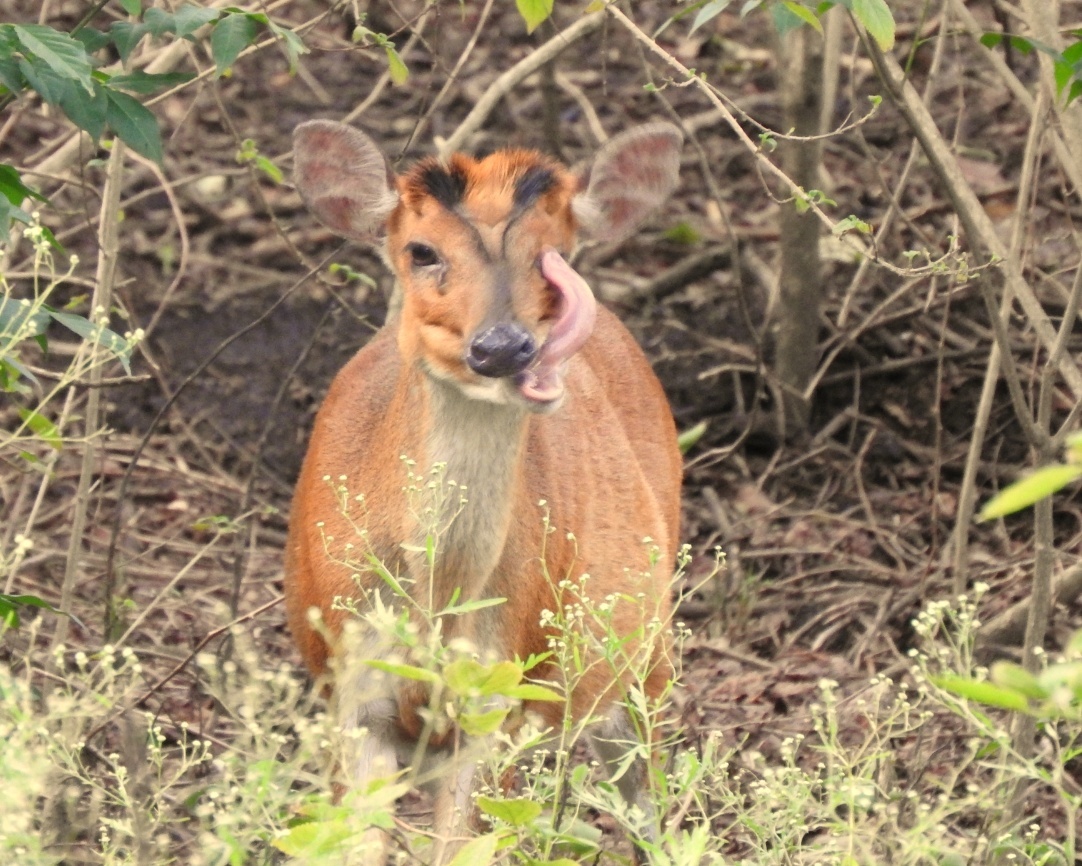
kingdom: Animalia
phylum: Chordata
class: Mammalia
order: Artiodactyla
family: Cervidae
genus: Muntiacus
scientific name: Muntiacus muntjak
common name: Indian muntjac
